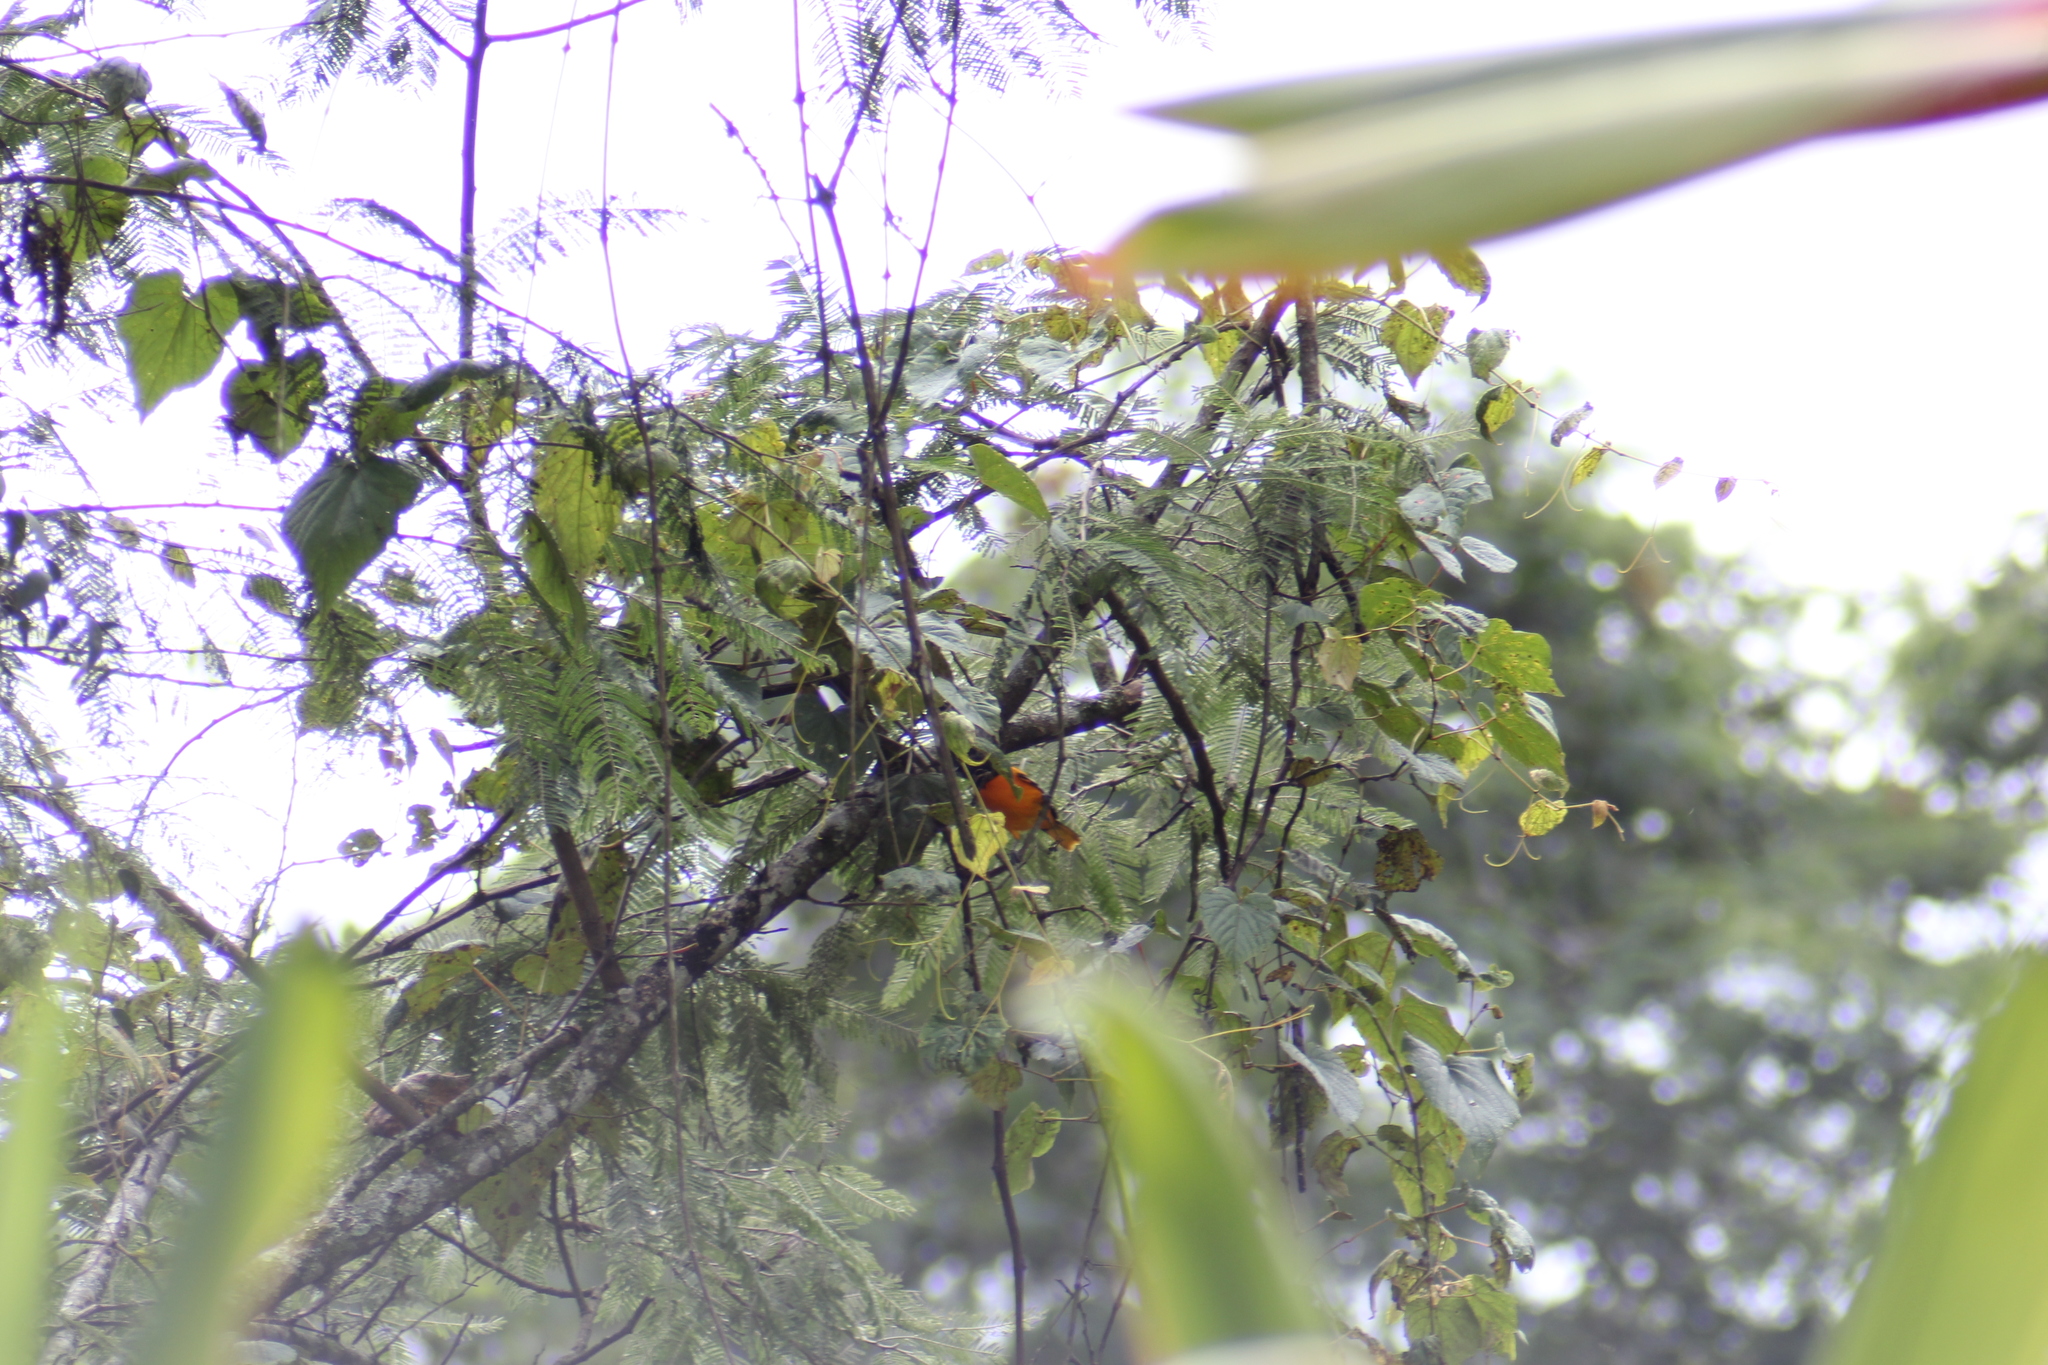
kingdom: Animalia
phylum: Chordata
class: Aves
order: Passeriformes
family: Icteridae
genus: Icterus
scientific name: Icterus galbula
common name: Baltimore oriole
